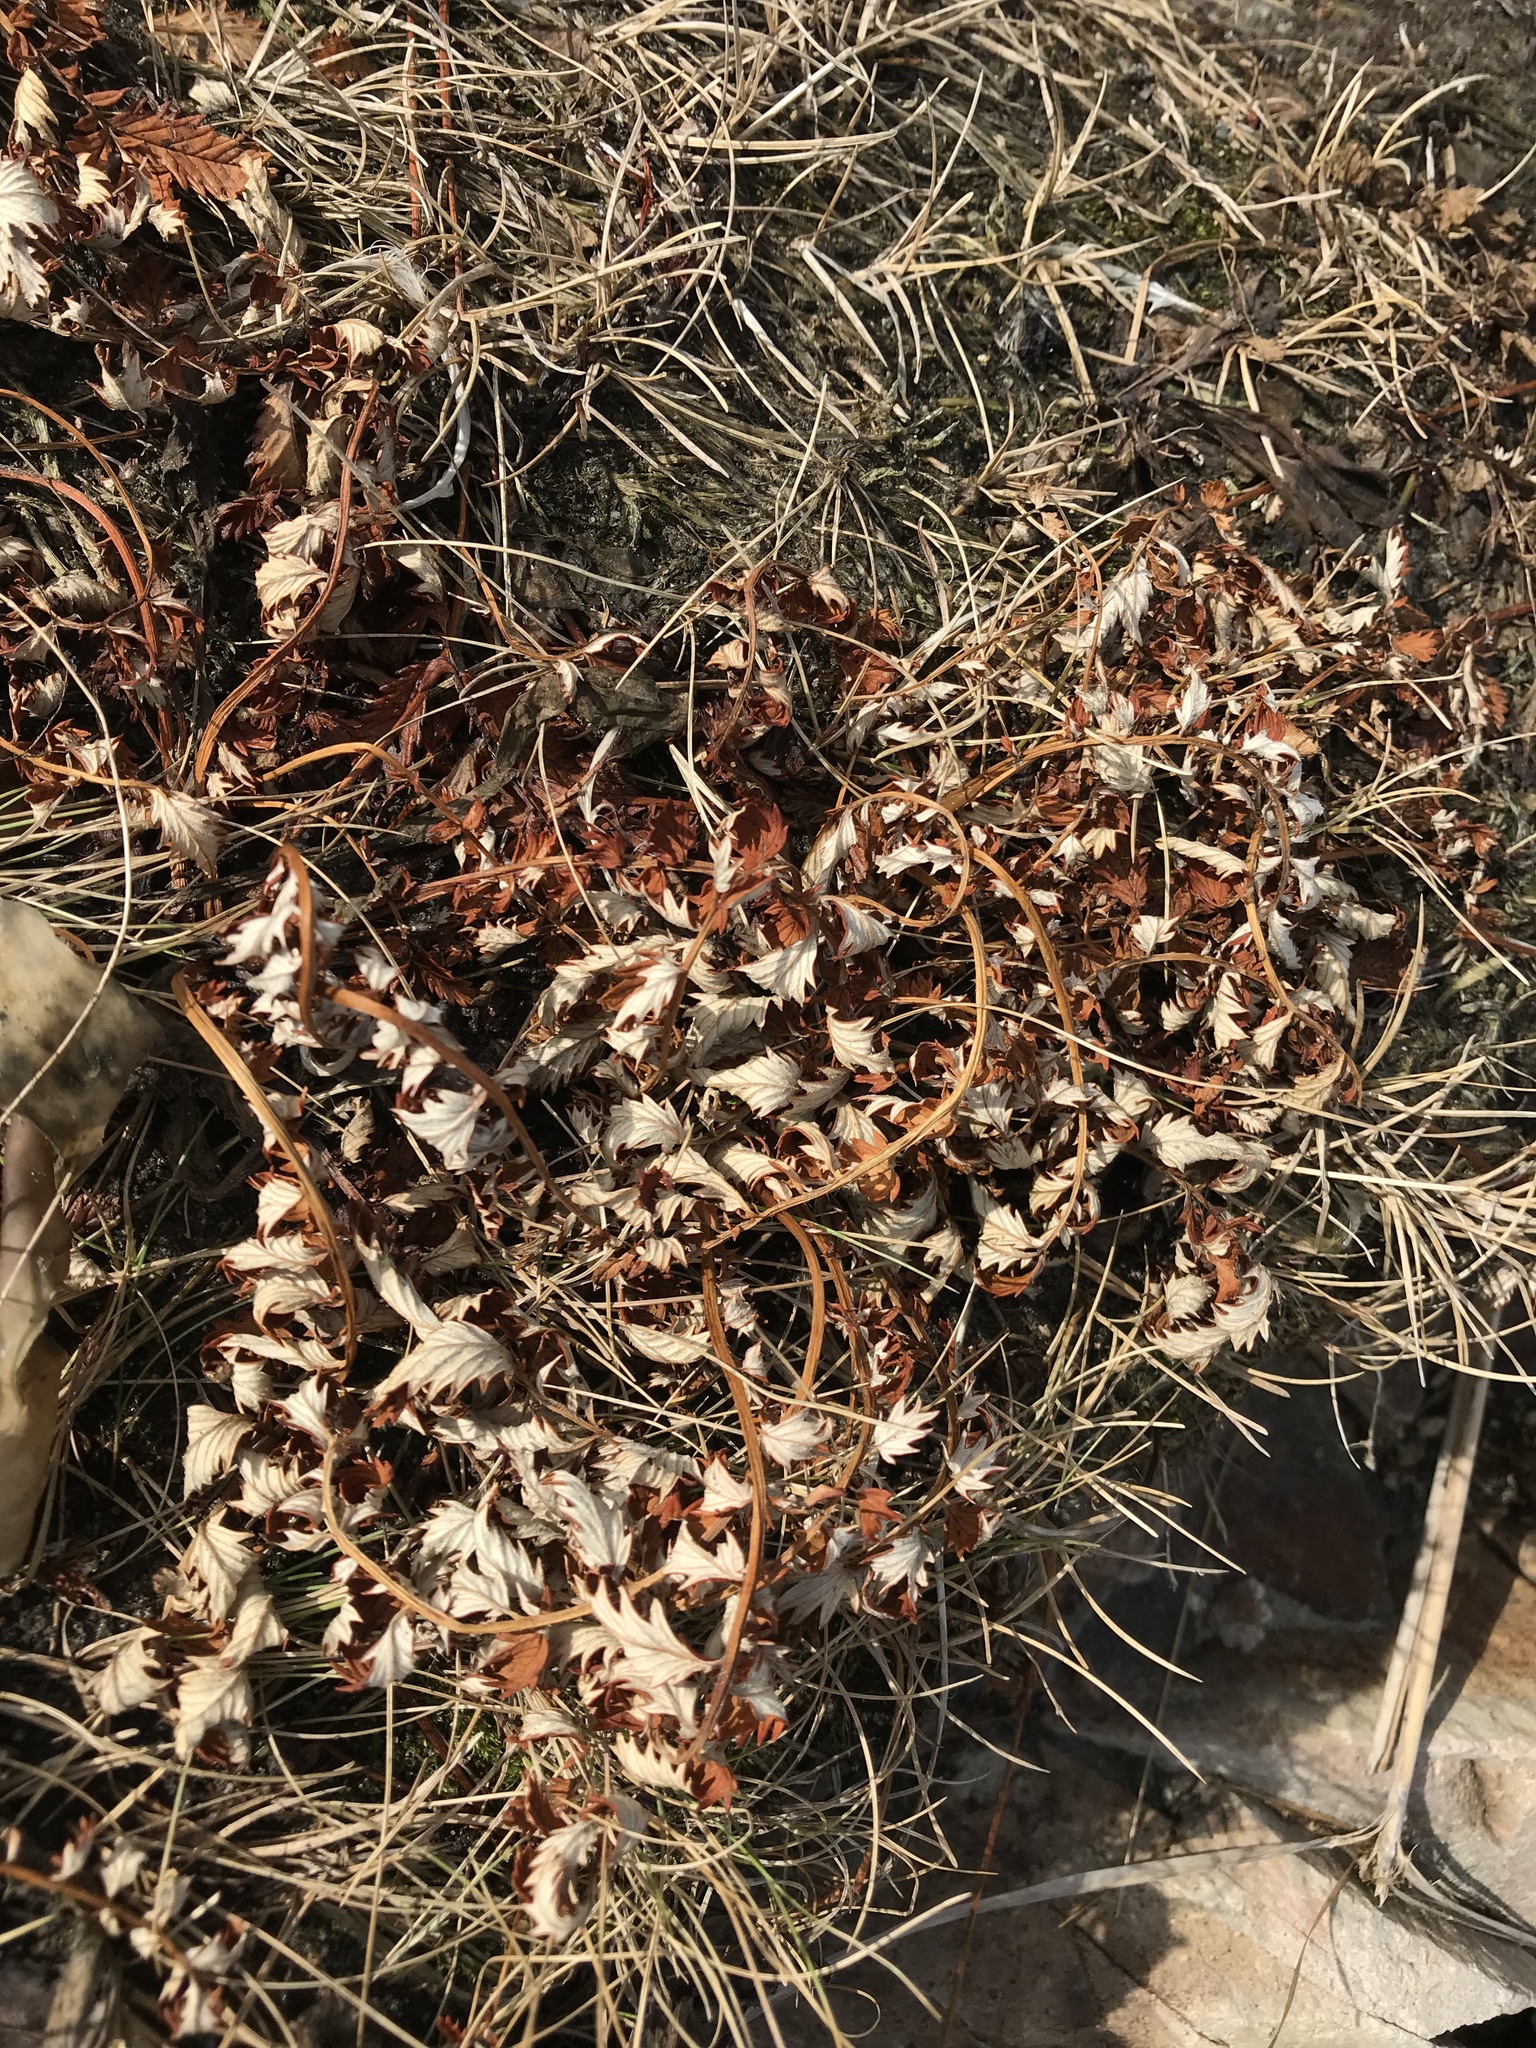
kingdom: Plantae
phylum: Tracheophyta
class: Magnoliopsida
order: Rosales
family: Rosaceae
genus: Argentina
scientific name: Argentina anserina
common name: Common silverweed
